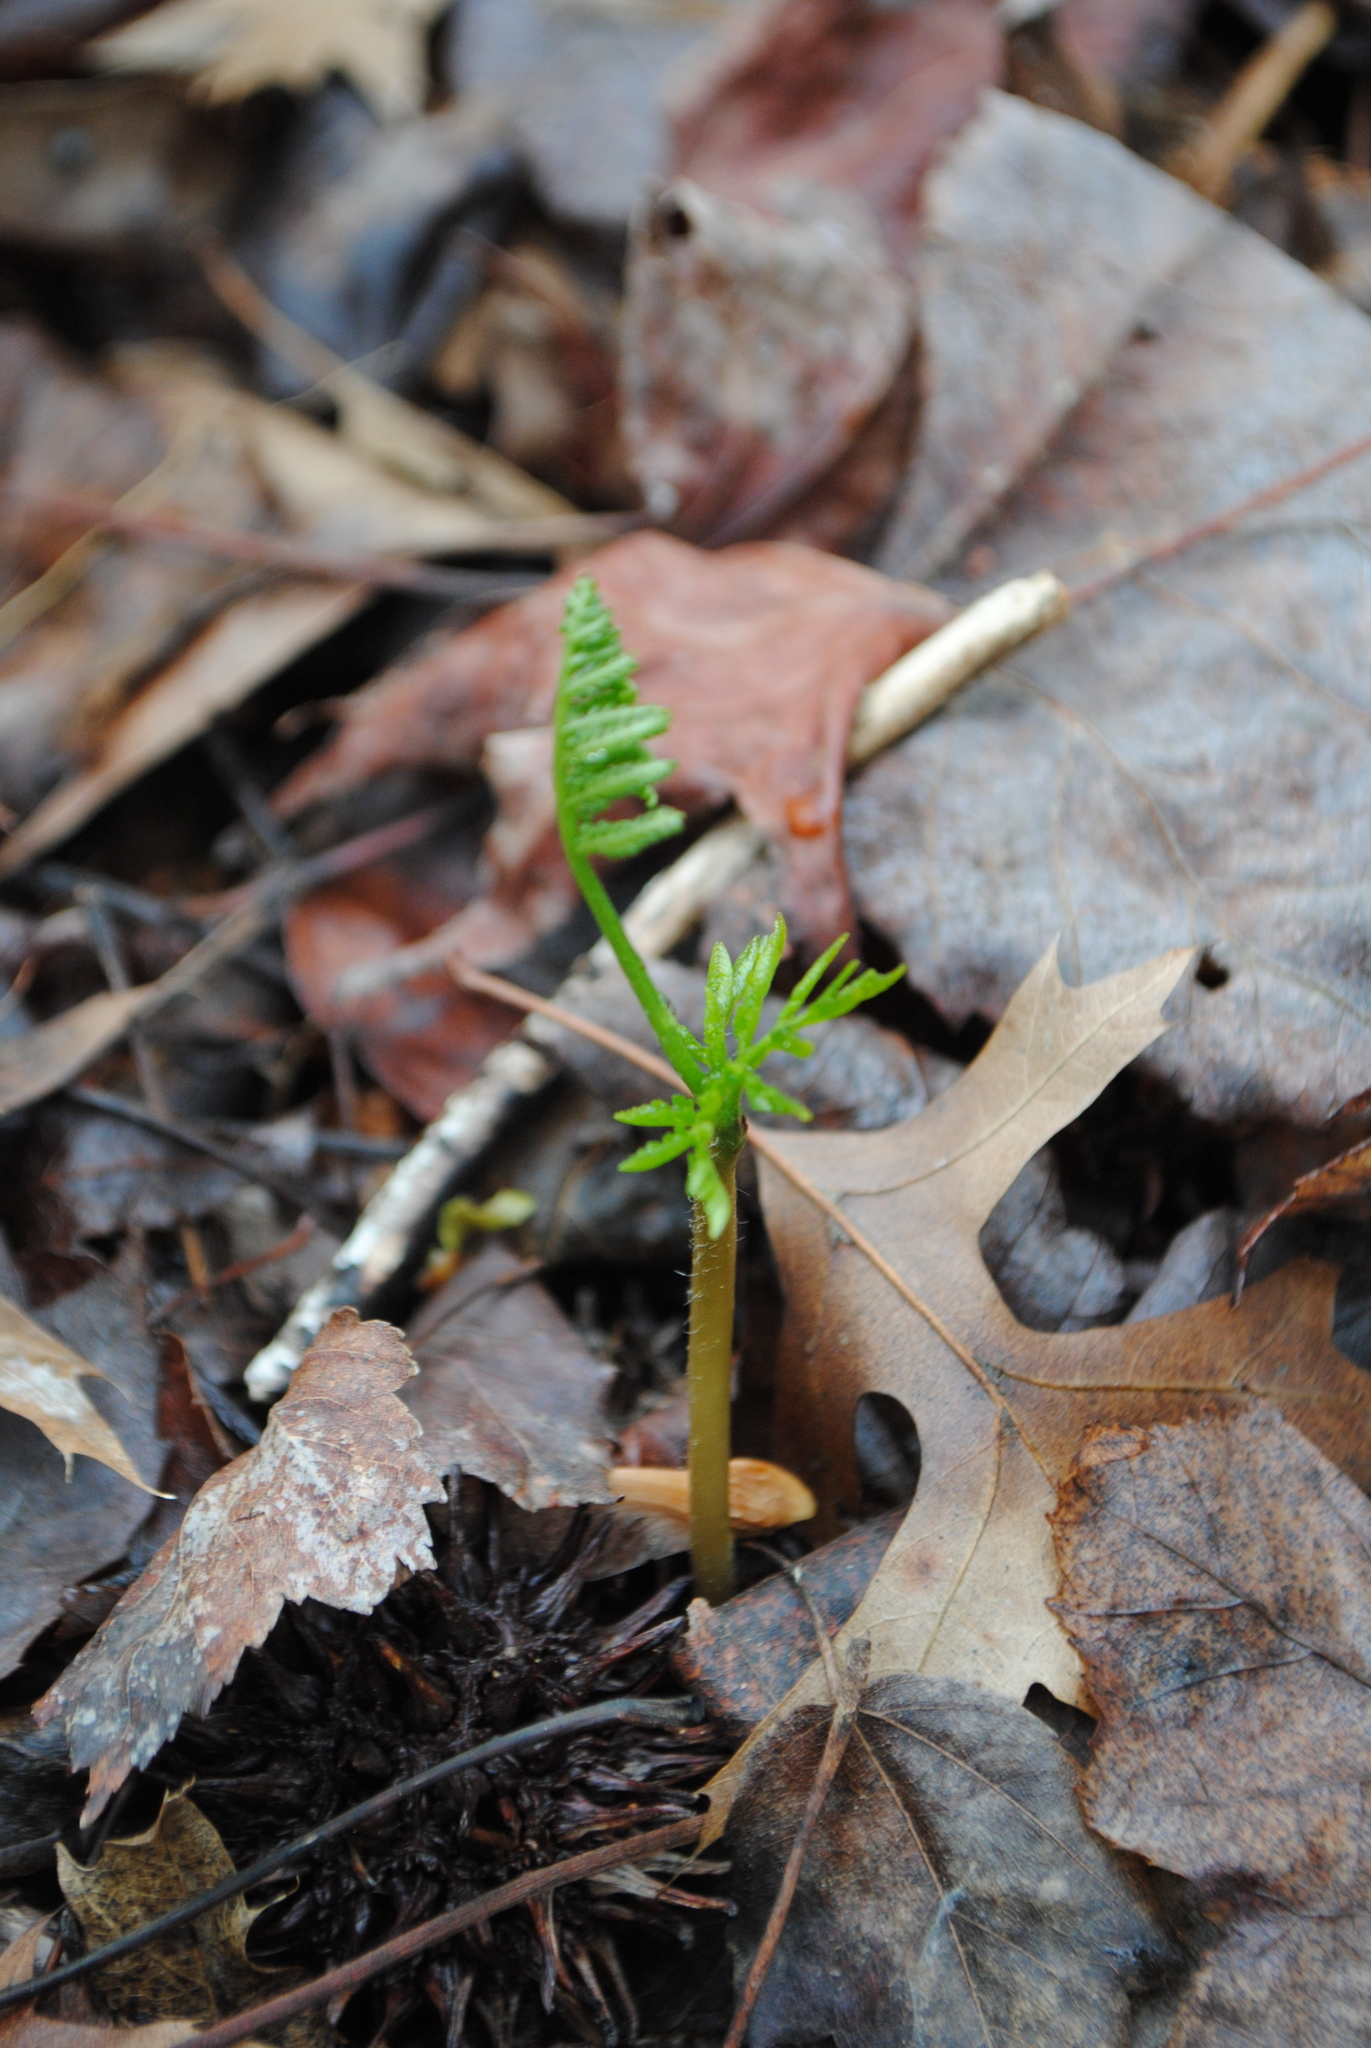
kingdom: Plantae
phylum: Tracheophyta
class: Polypodiopsida
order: Ophioglossales
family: Ophioglossaceae
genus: Botrypus
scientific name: Botrypus virginianus
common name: Common grapefern
